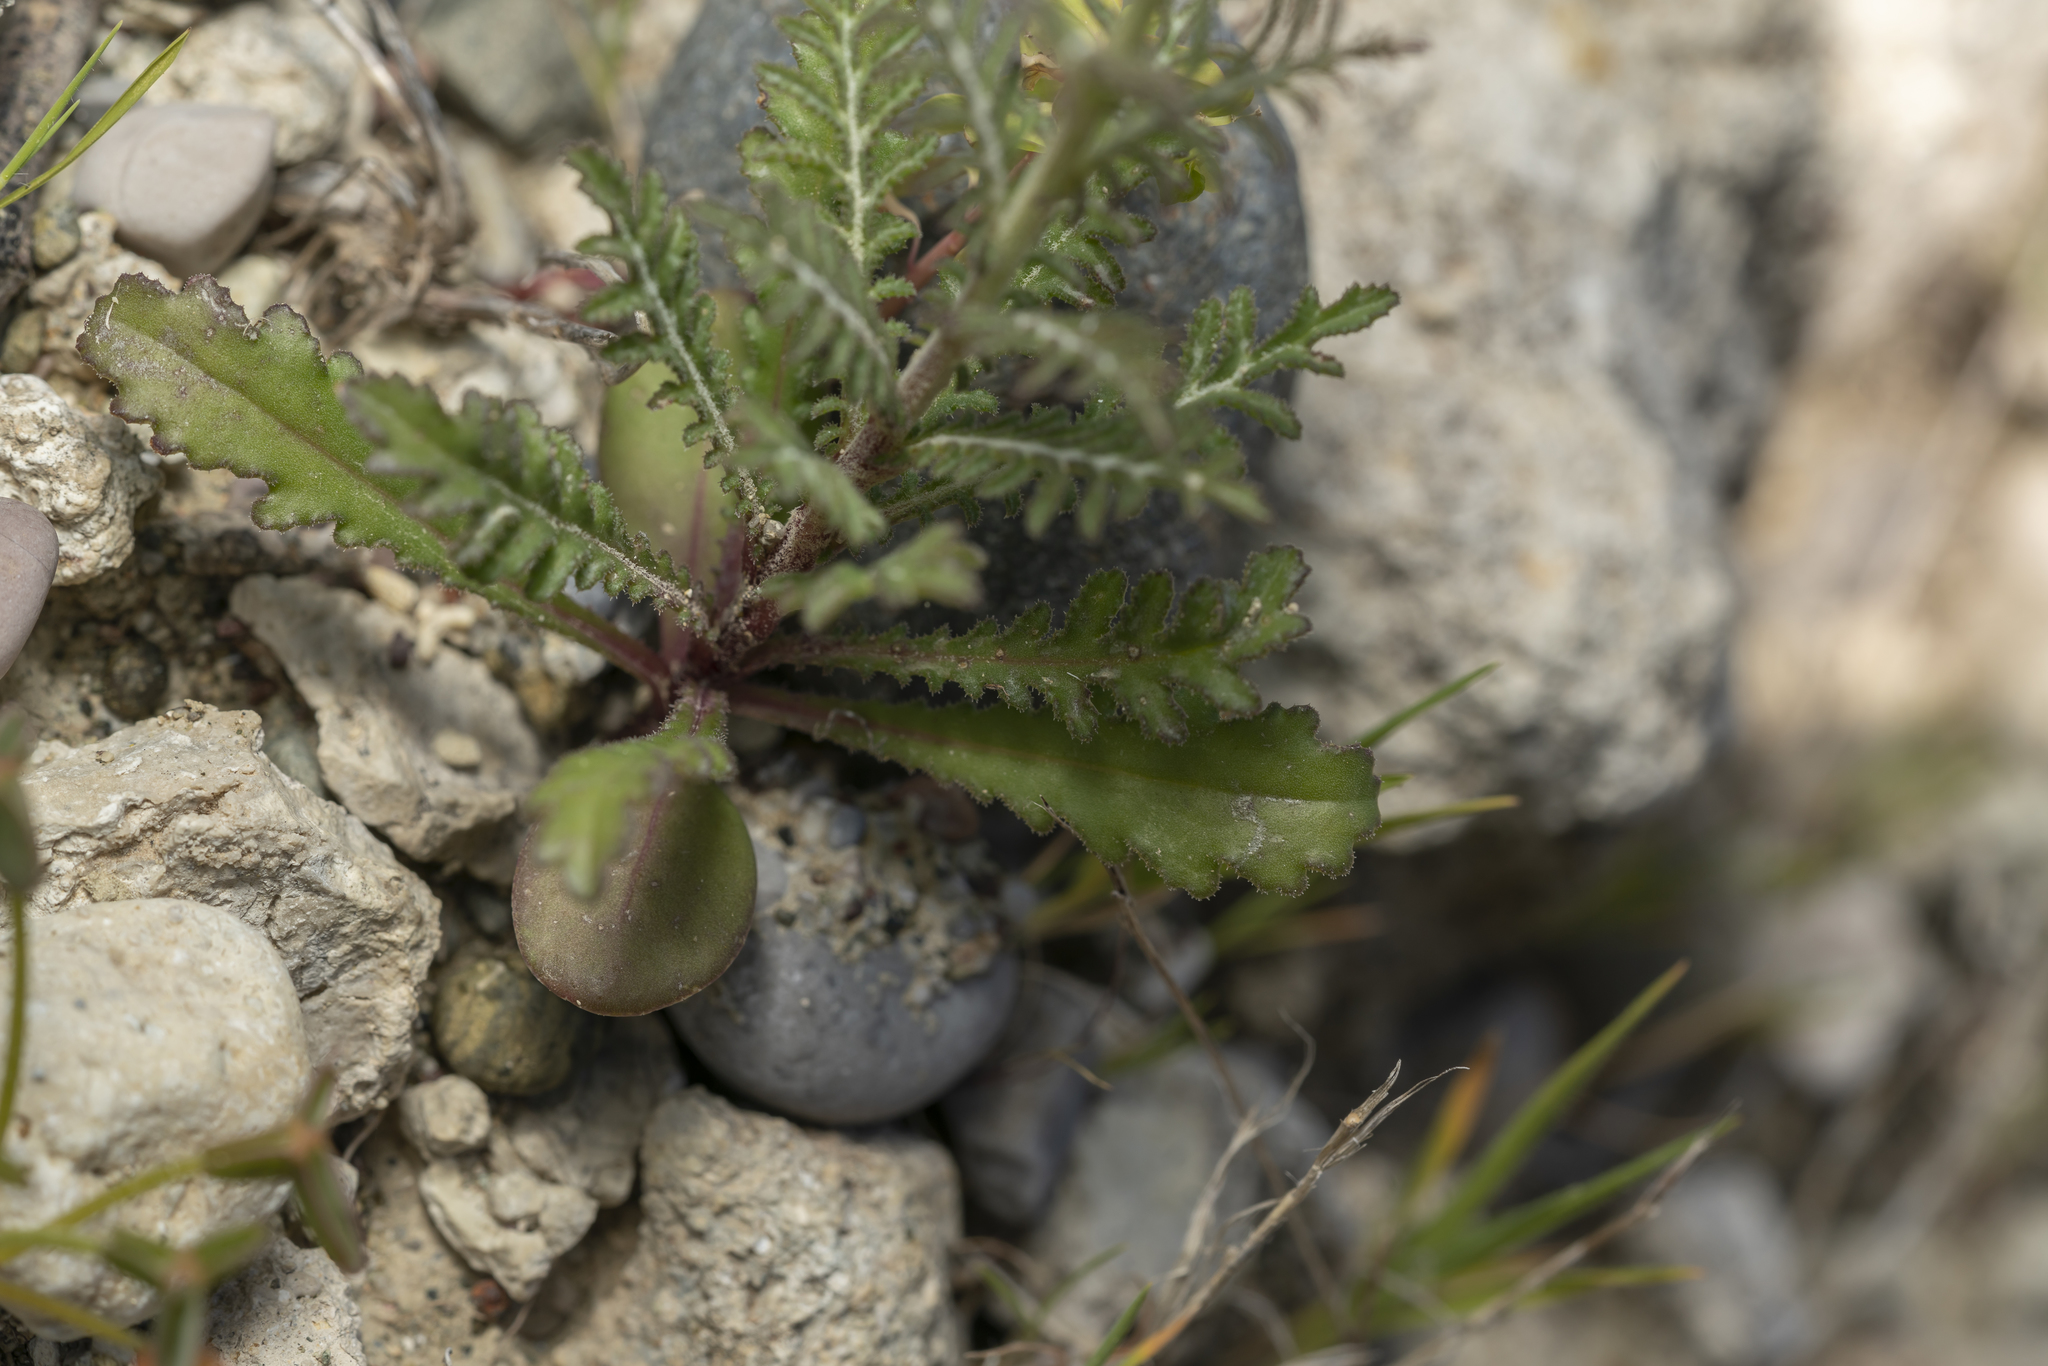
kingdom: Plantae
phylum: Tracheophyta
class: Magnoliopsida
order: Asterales
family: Asteraceae
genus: Crupina
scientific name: Crupina crupinastrum
